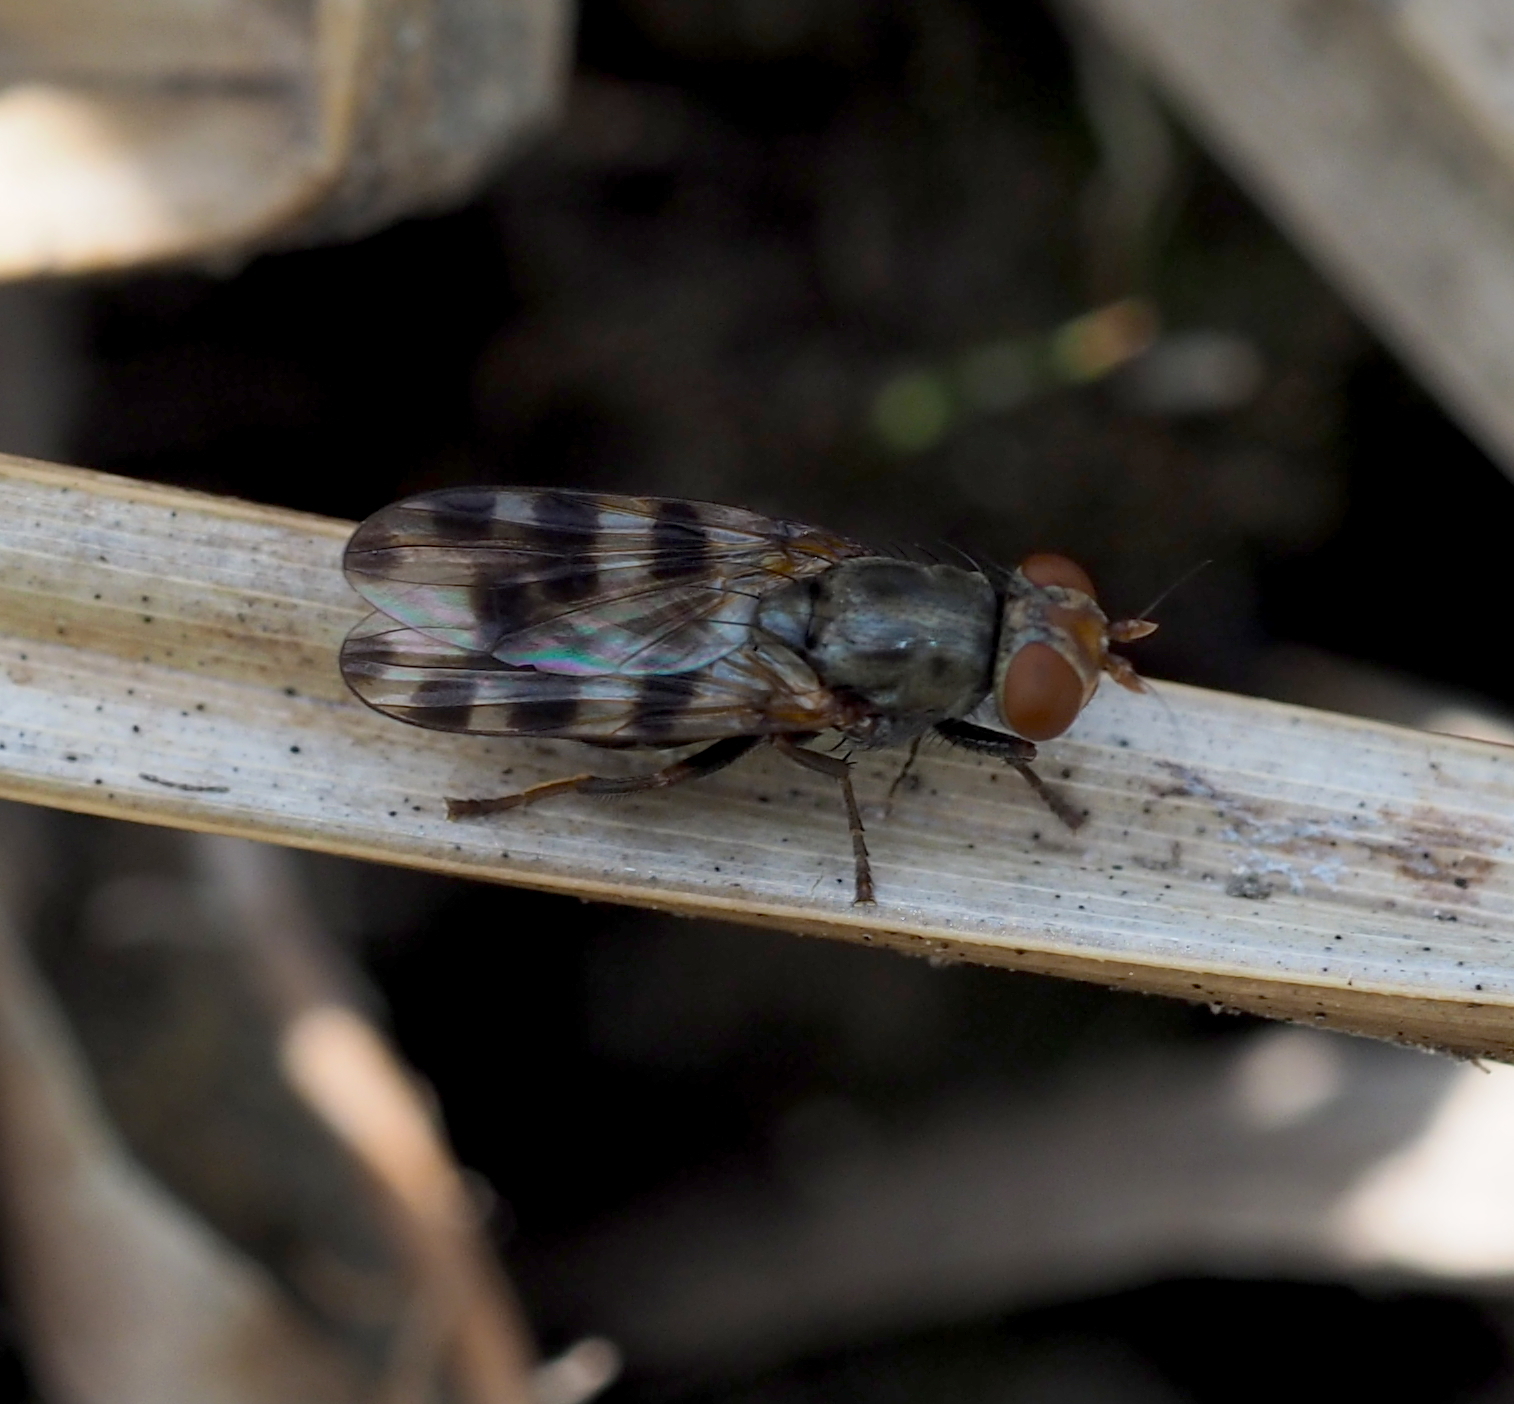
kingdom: Animalia
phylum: Arthropoda
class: Insecta
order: Diptera
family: Ulidiidae
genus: Ceroxys
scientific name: Ceroxys hyalinata
